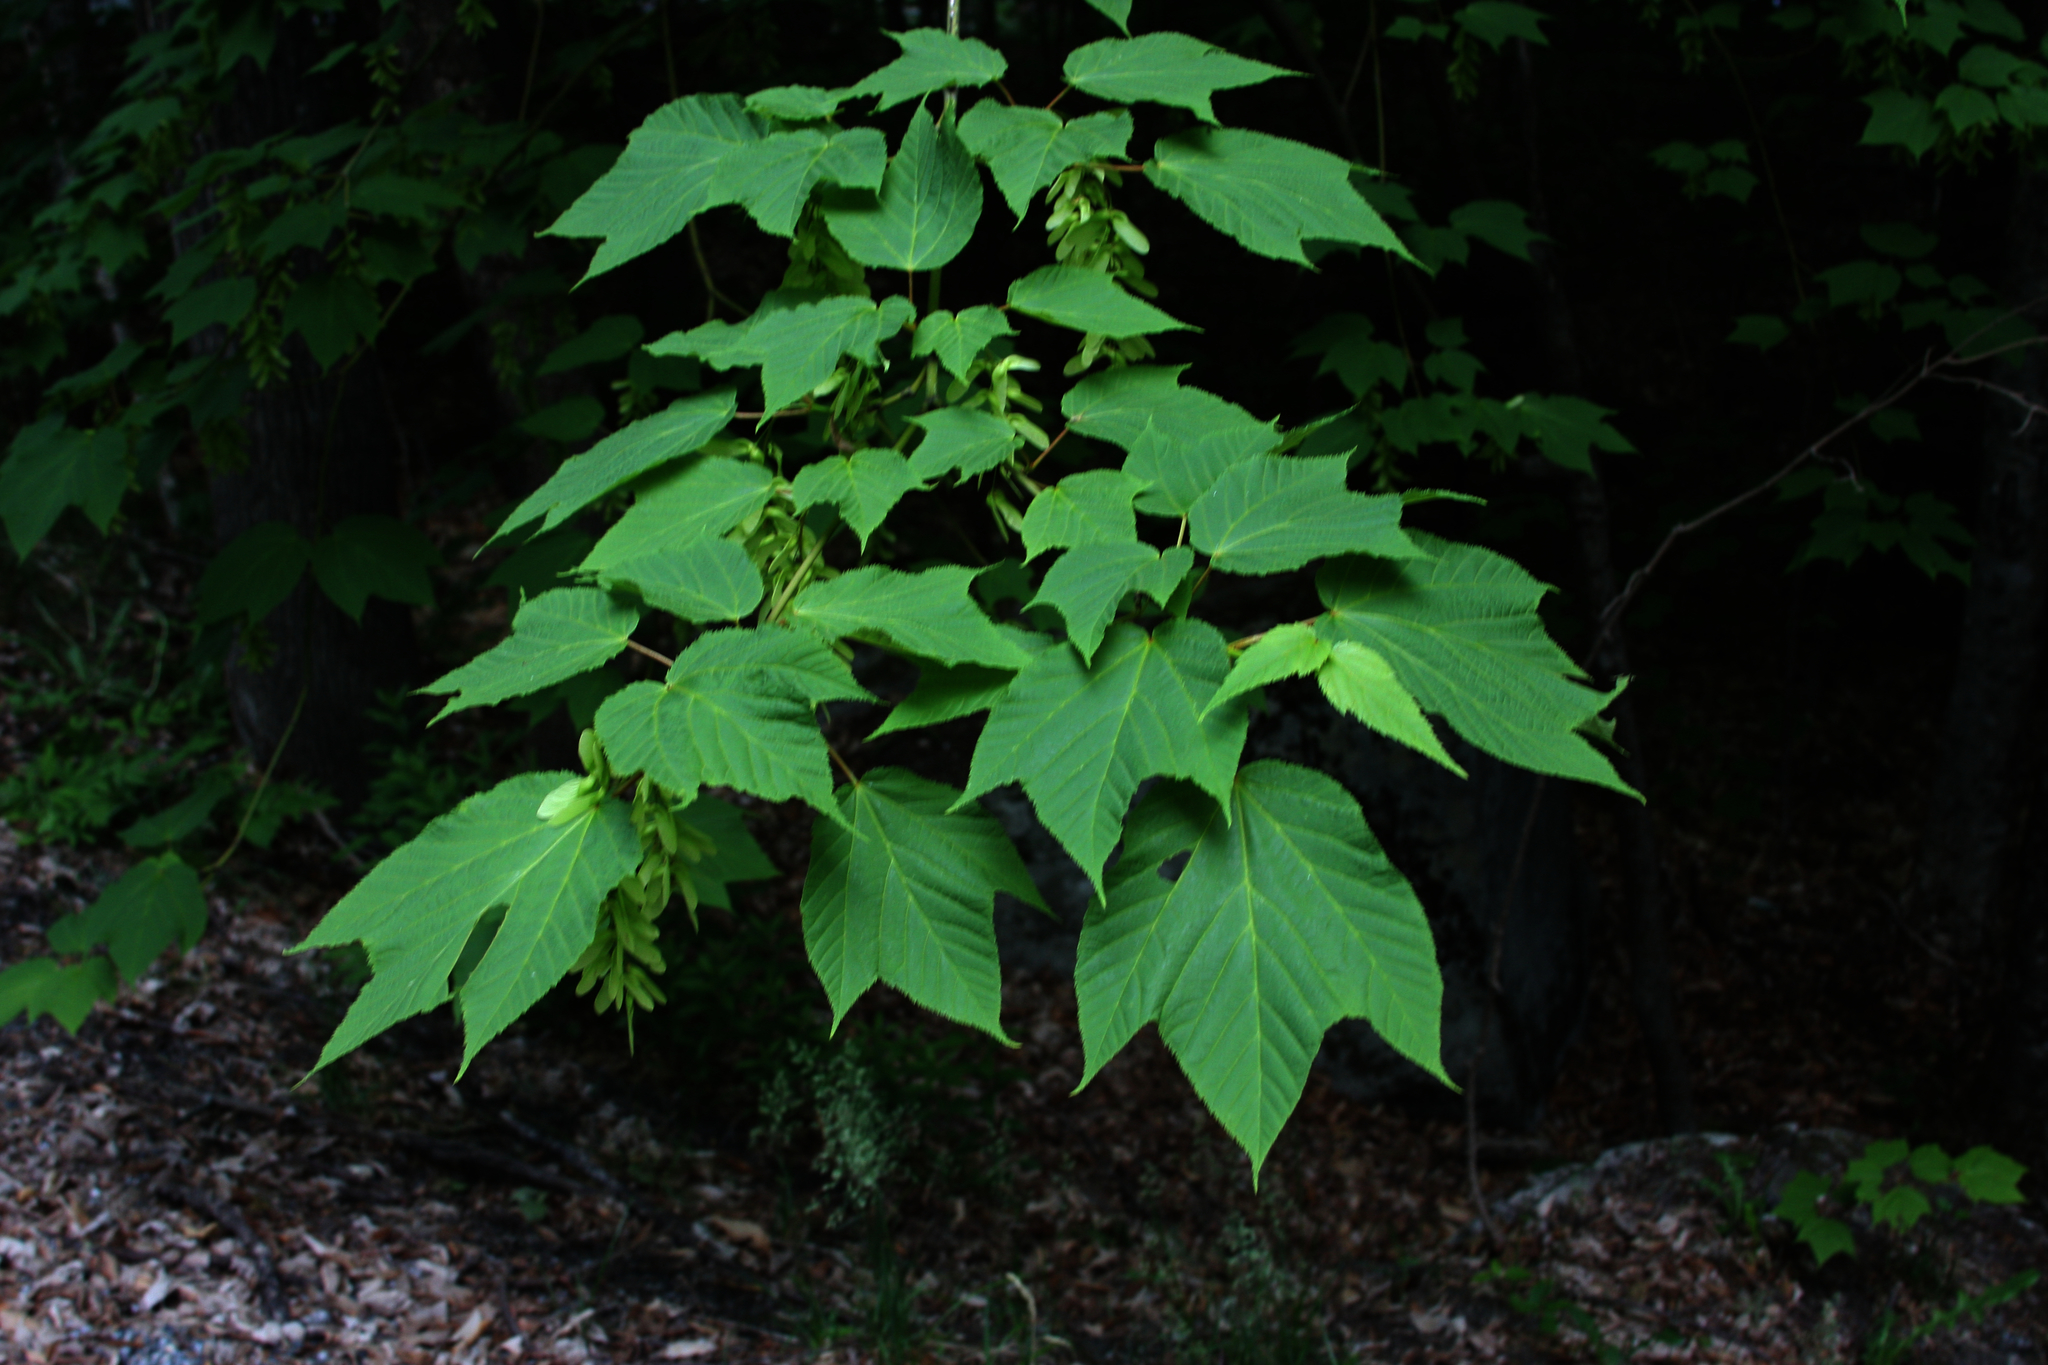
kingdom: Plantae
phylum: Tracheophyta
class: Magnoliopsida
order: Sapindales
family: Sapindaceae
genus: Acer
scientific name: Acer pensylvanicum
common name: Moosewood
